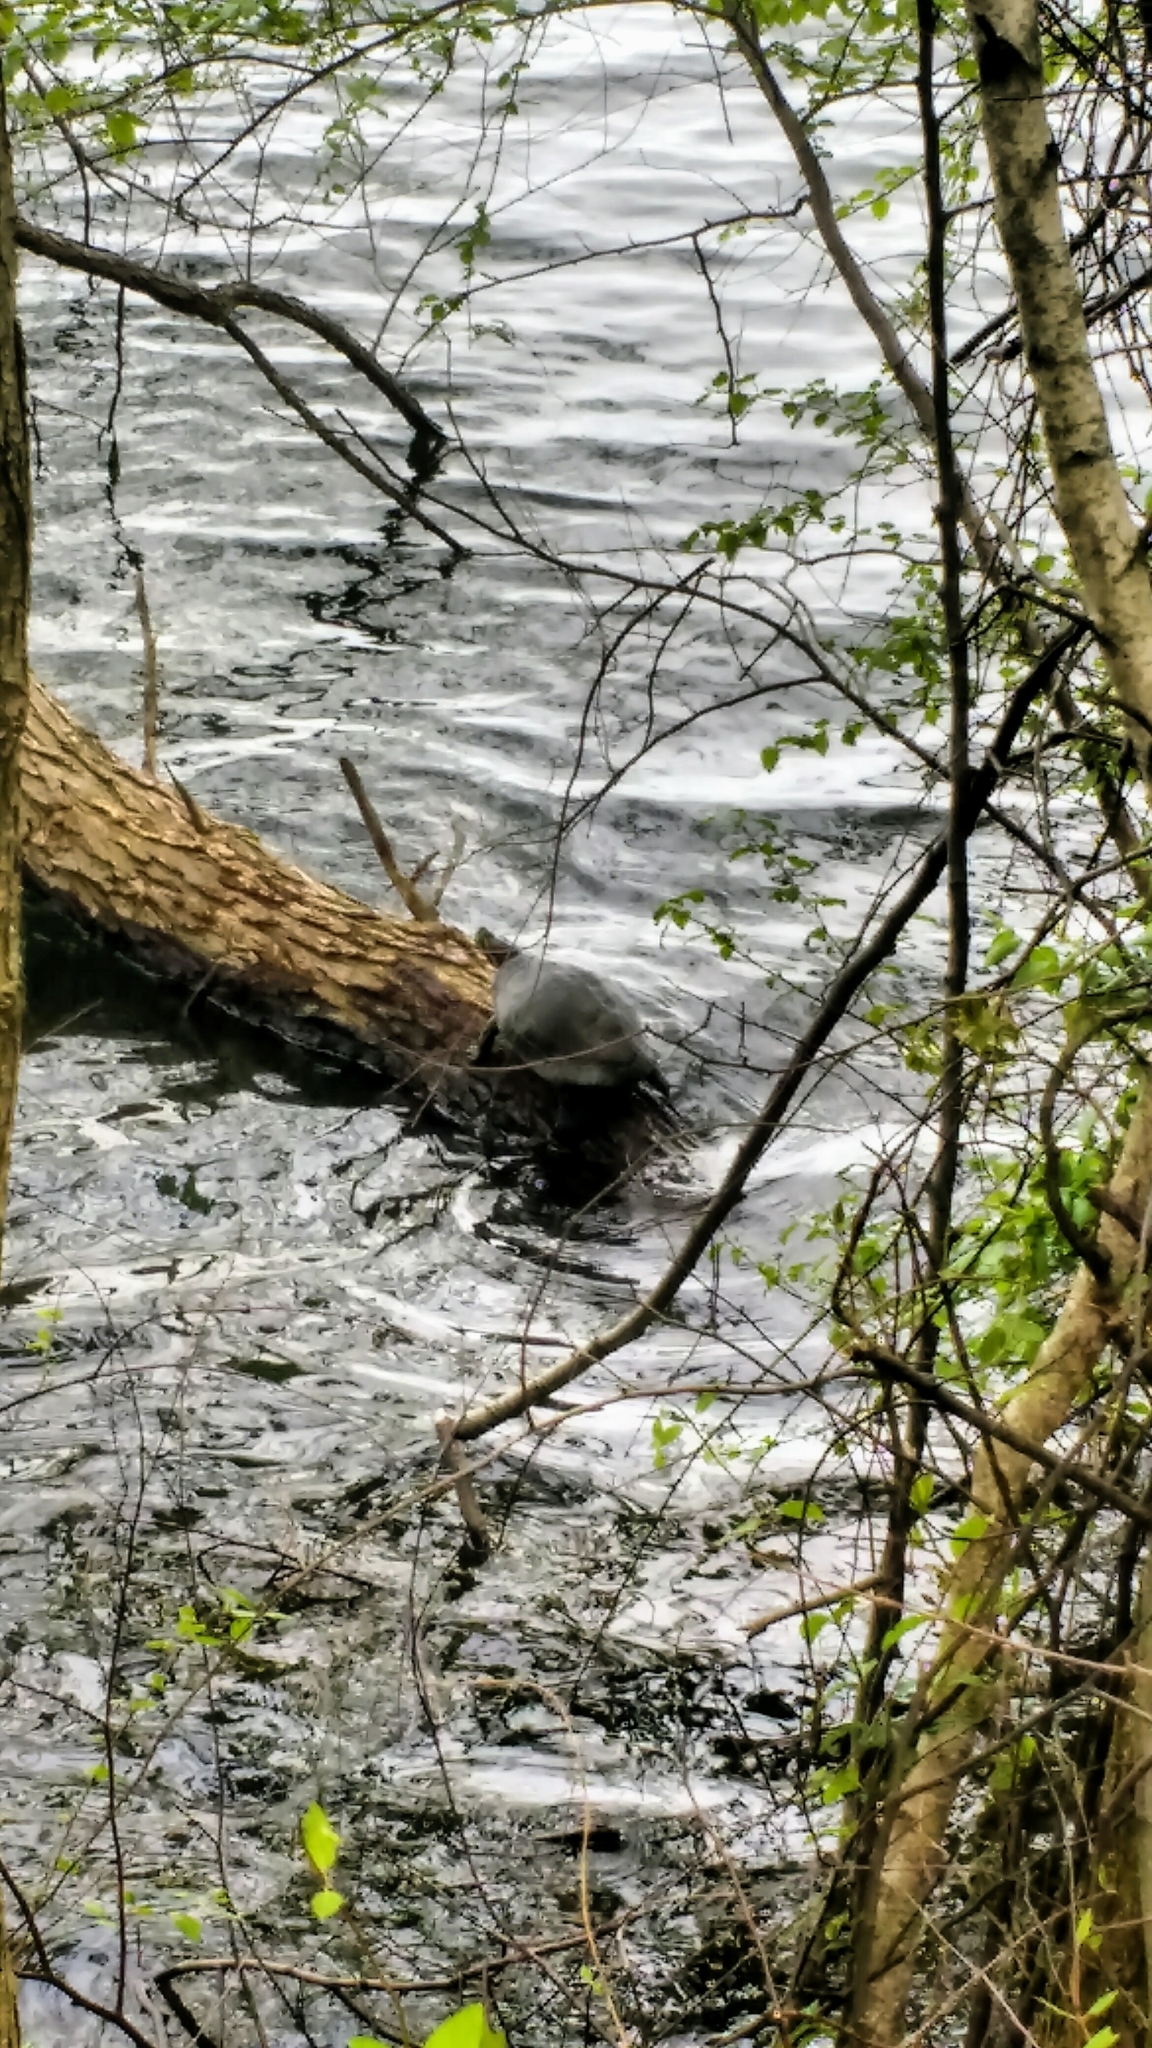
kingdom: Animalia
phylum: Chordata
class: Testudines
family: Emydidae
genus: Trachemys
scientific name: Trachemys scripta
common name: Slider
